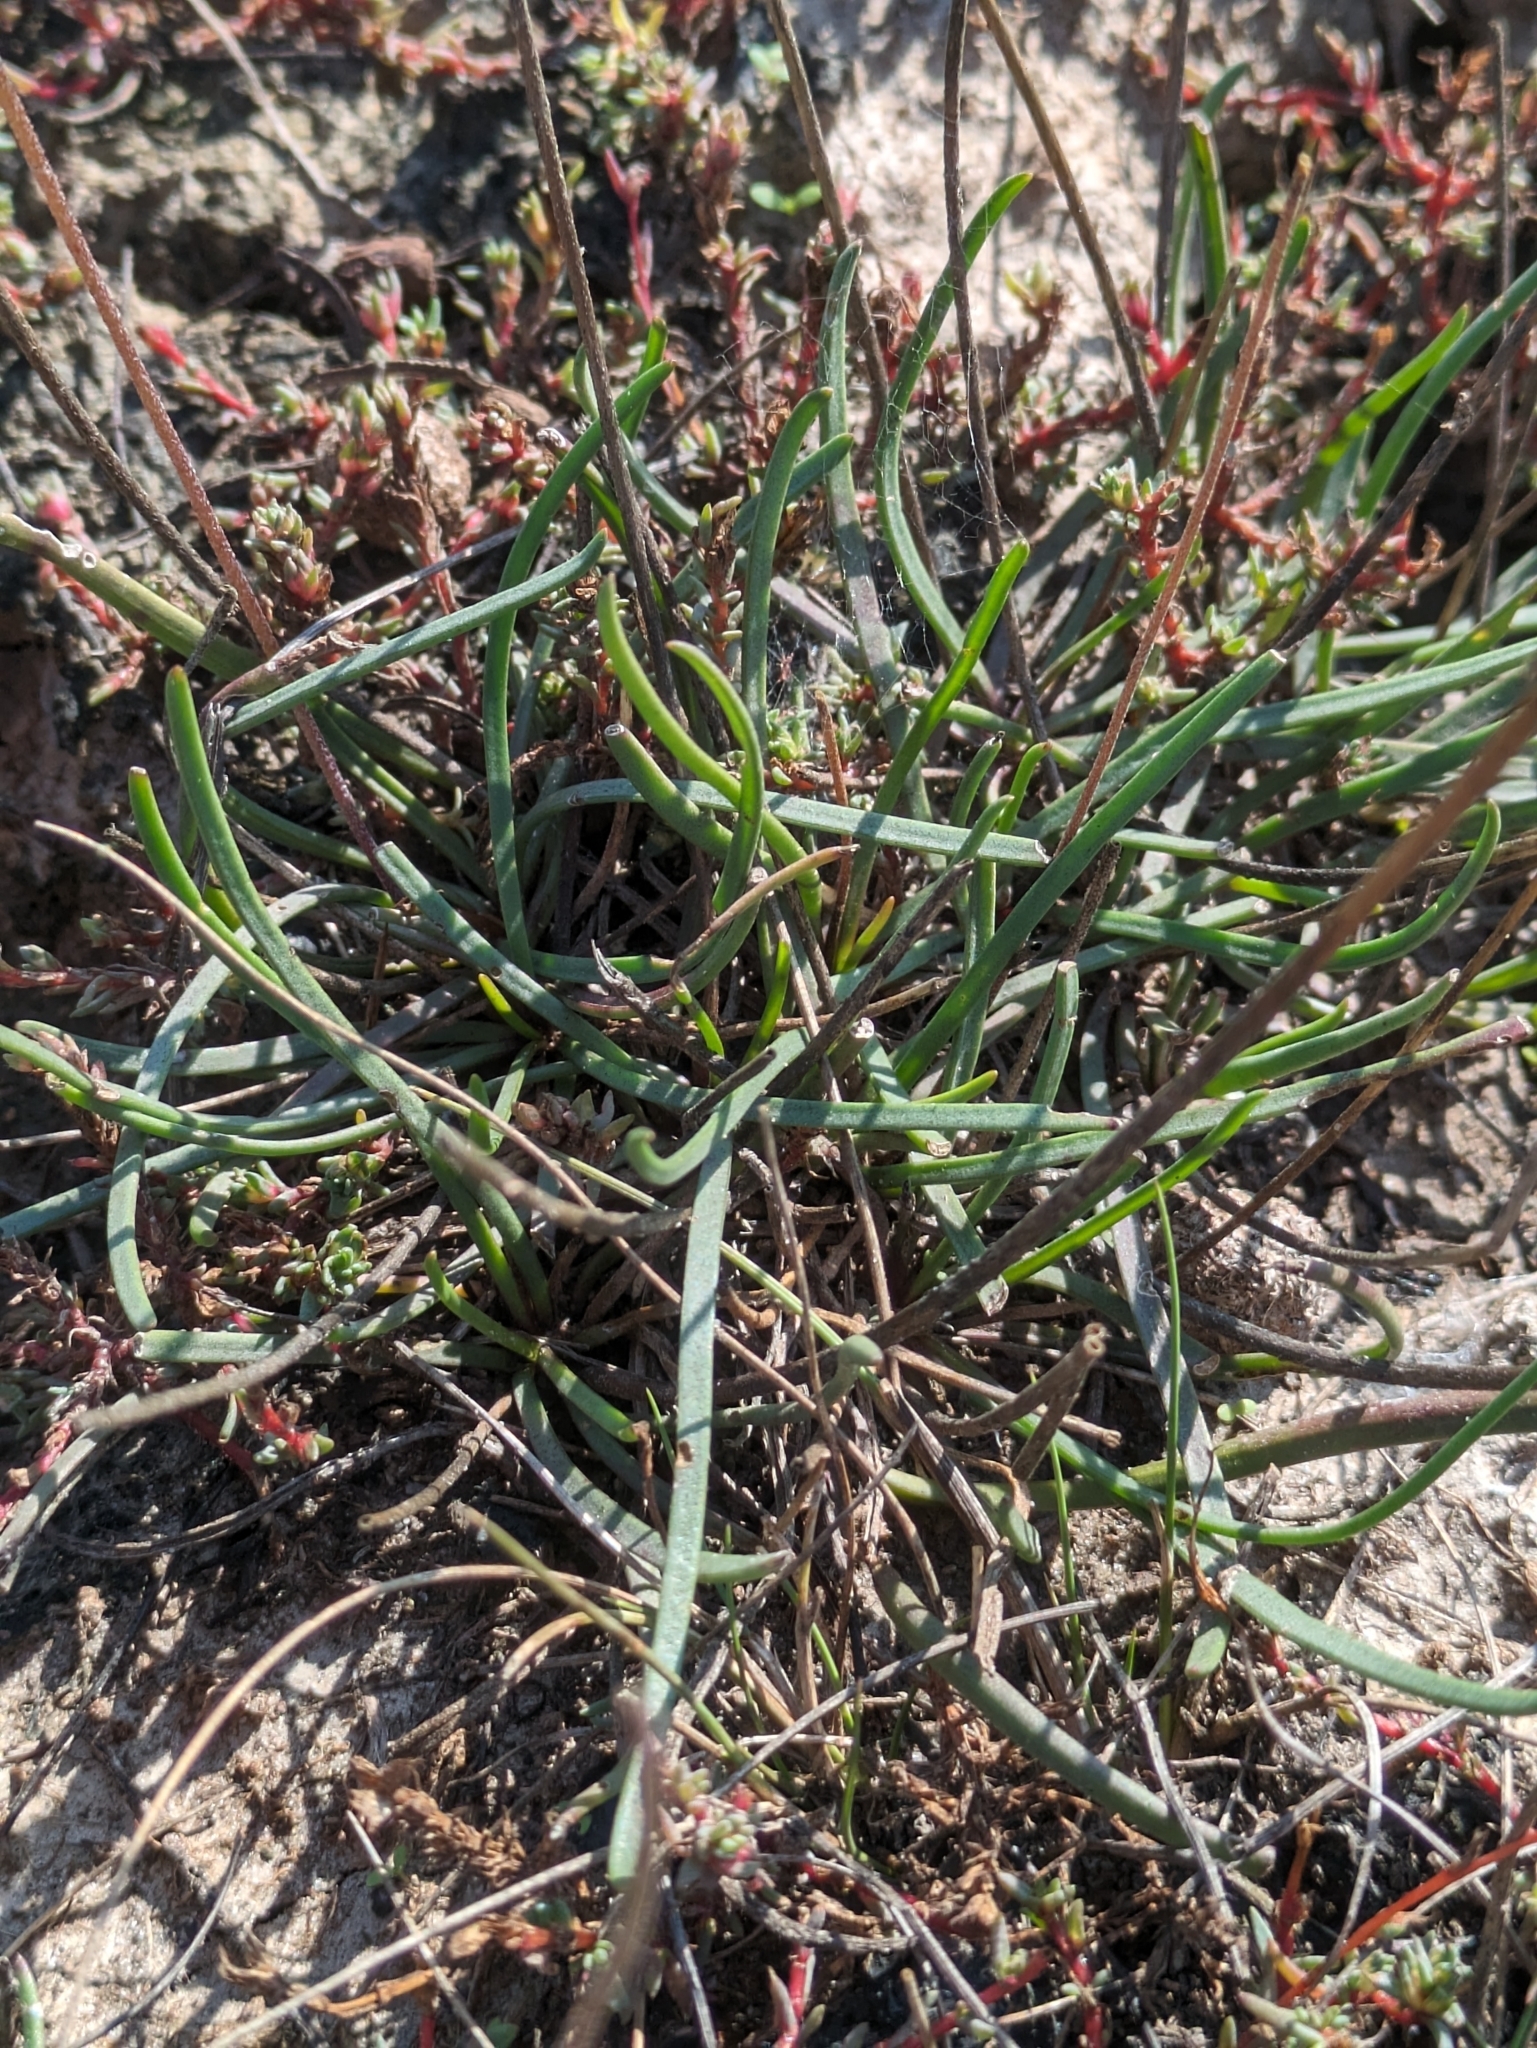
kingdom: Plantae
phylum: Tracheophyta
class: Magnoliopsida
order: Lamiales
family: Plantaginaceae
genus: Plantago
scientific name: Plantago maritima
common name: Sea plantain
